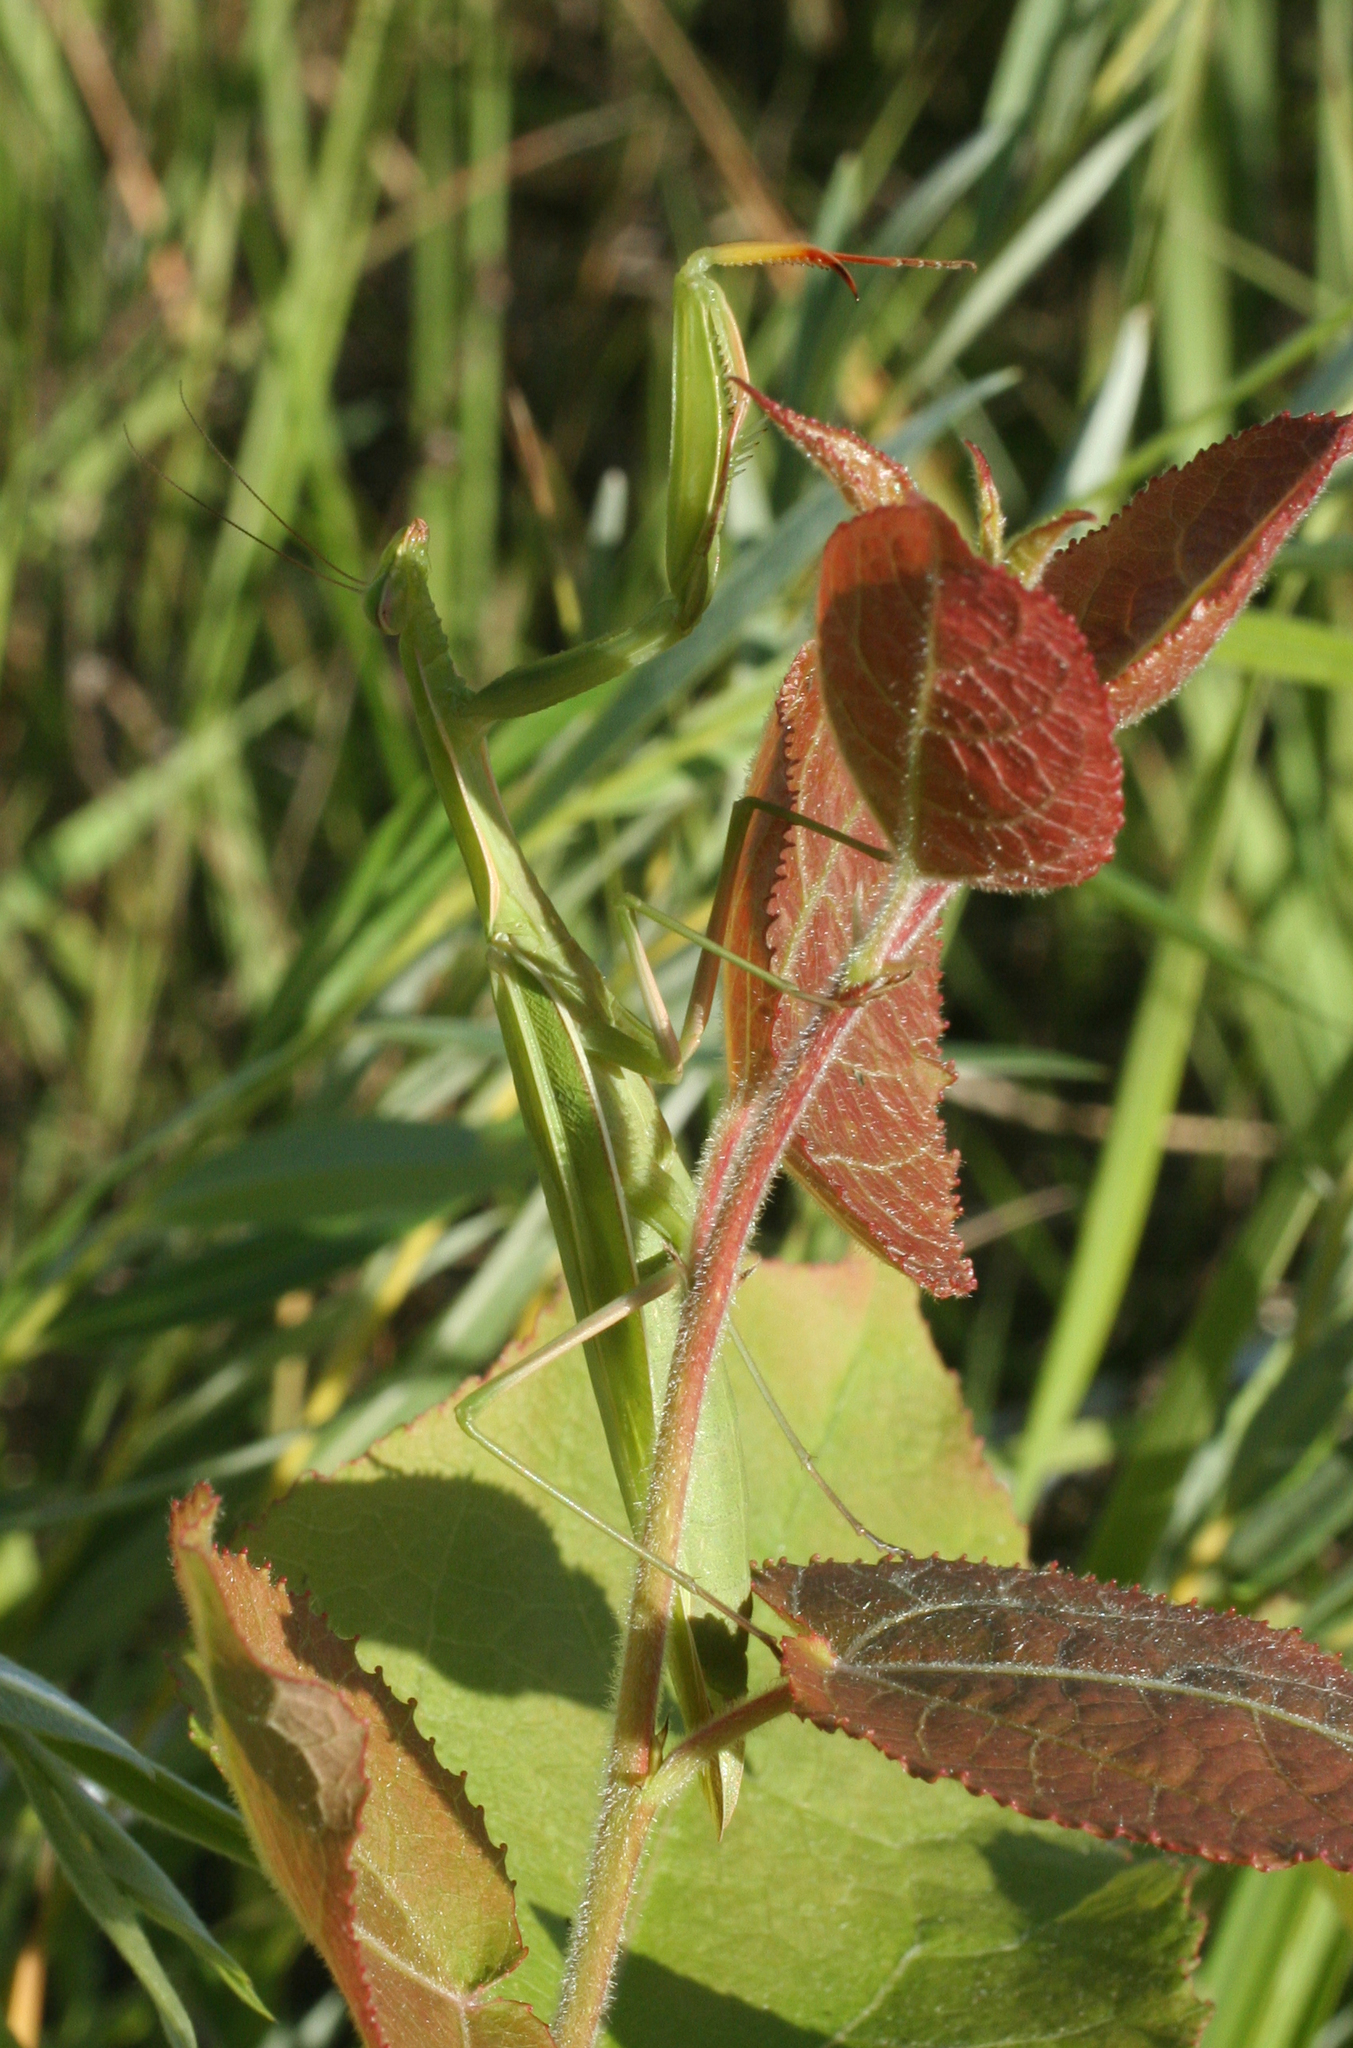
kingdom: Animalia
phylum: Arthropoda
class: Insecta
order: Mantodea
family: Mantidae
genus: Mantis
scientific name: Mantis religiosa
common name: Praying mantis
